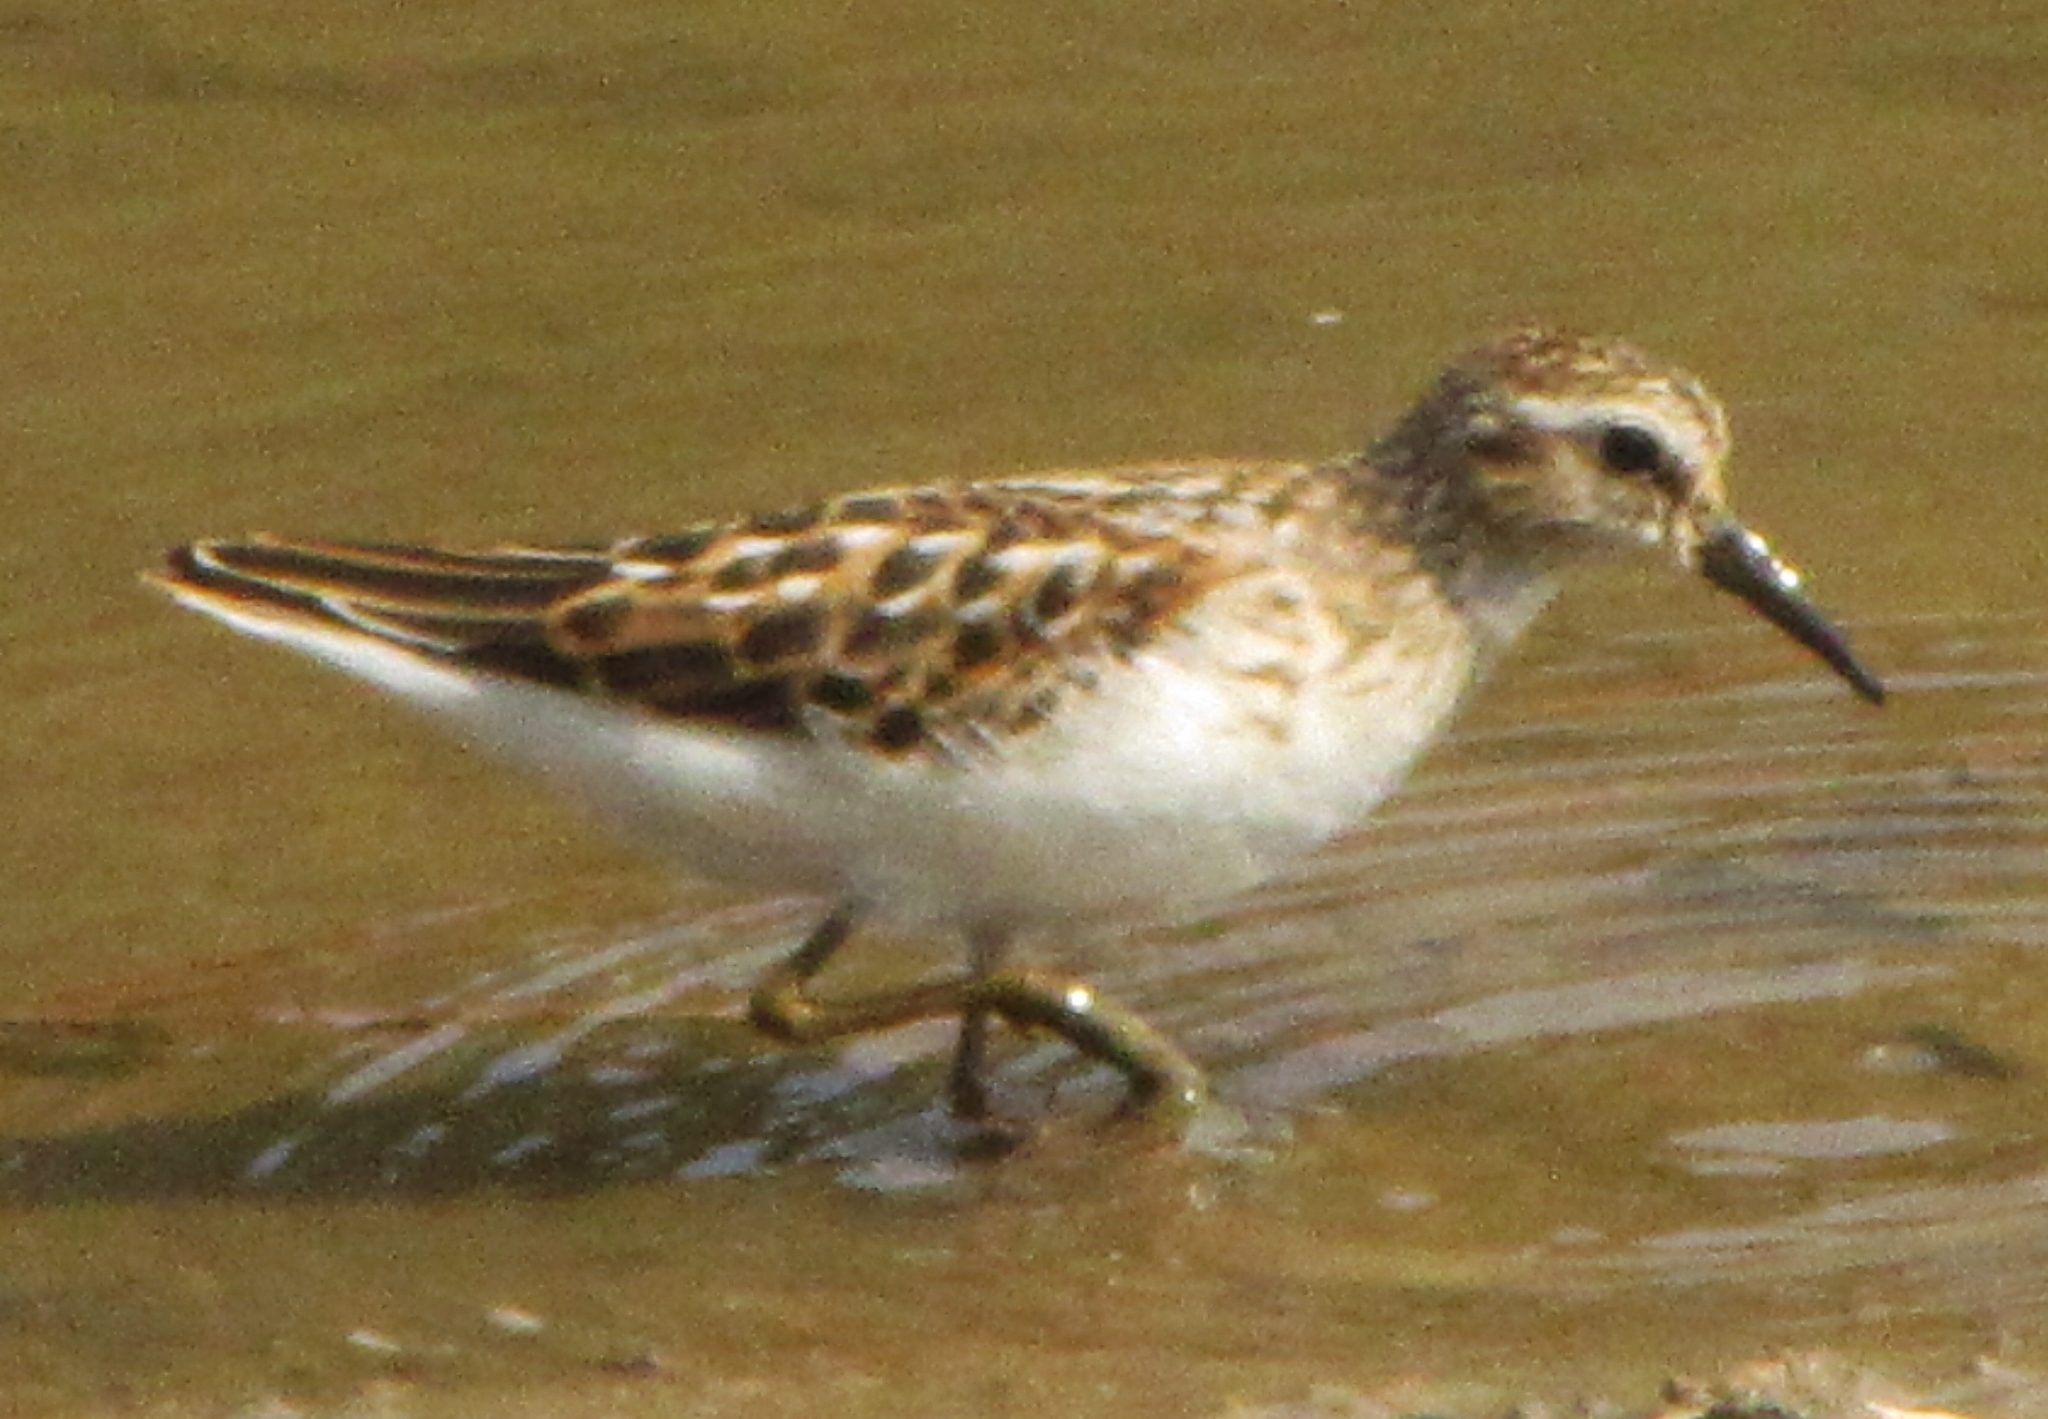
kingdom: Animalia
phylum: Chordata
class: Aves
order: Charadriiformes
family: Scolopacidae
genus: Calidris
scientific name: Calidris minutilla
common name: Least sandpiper
